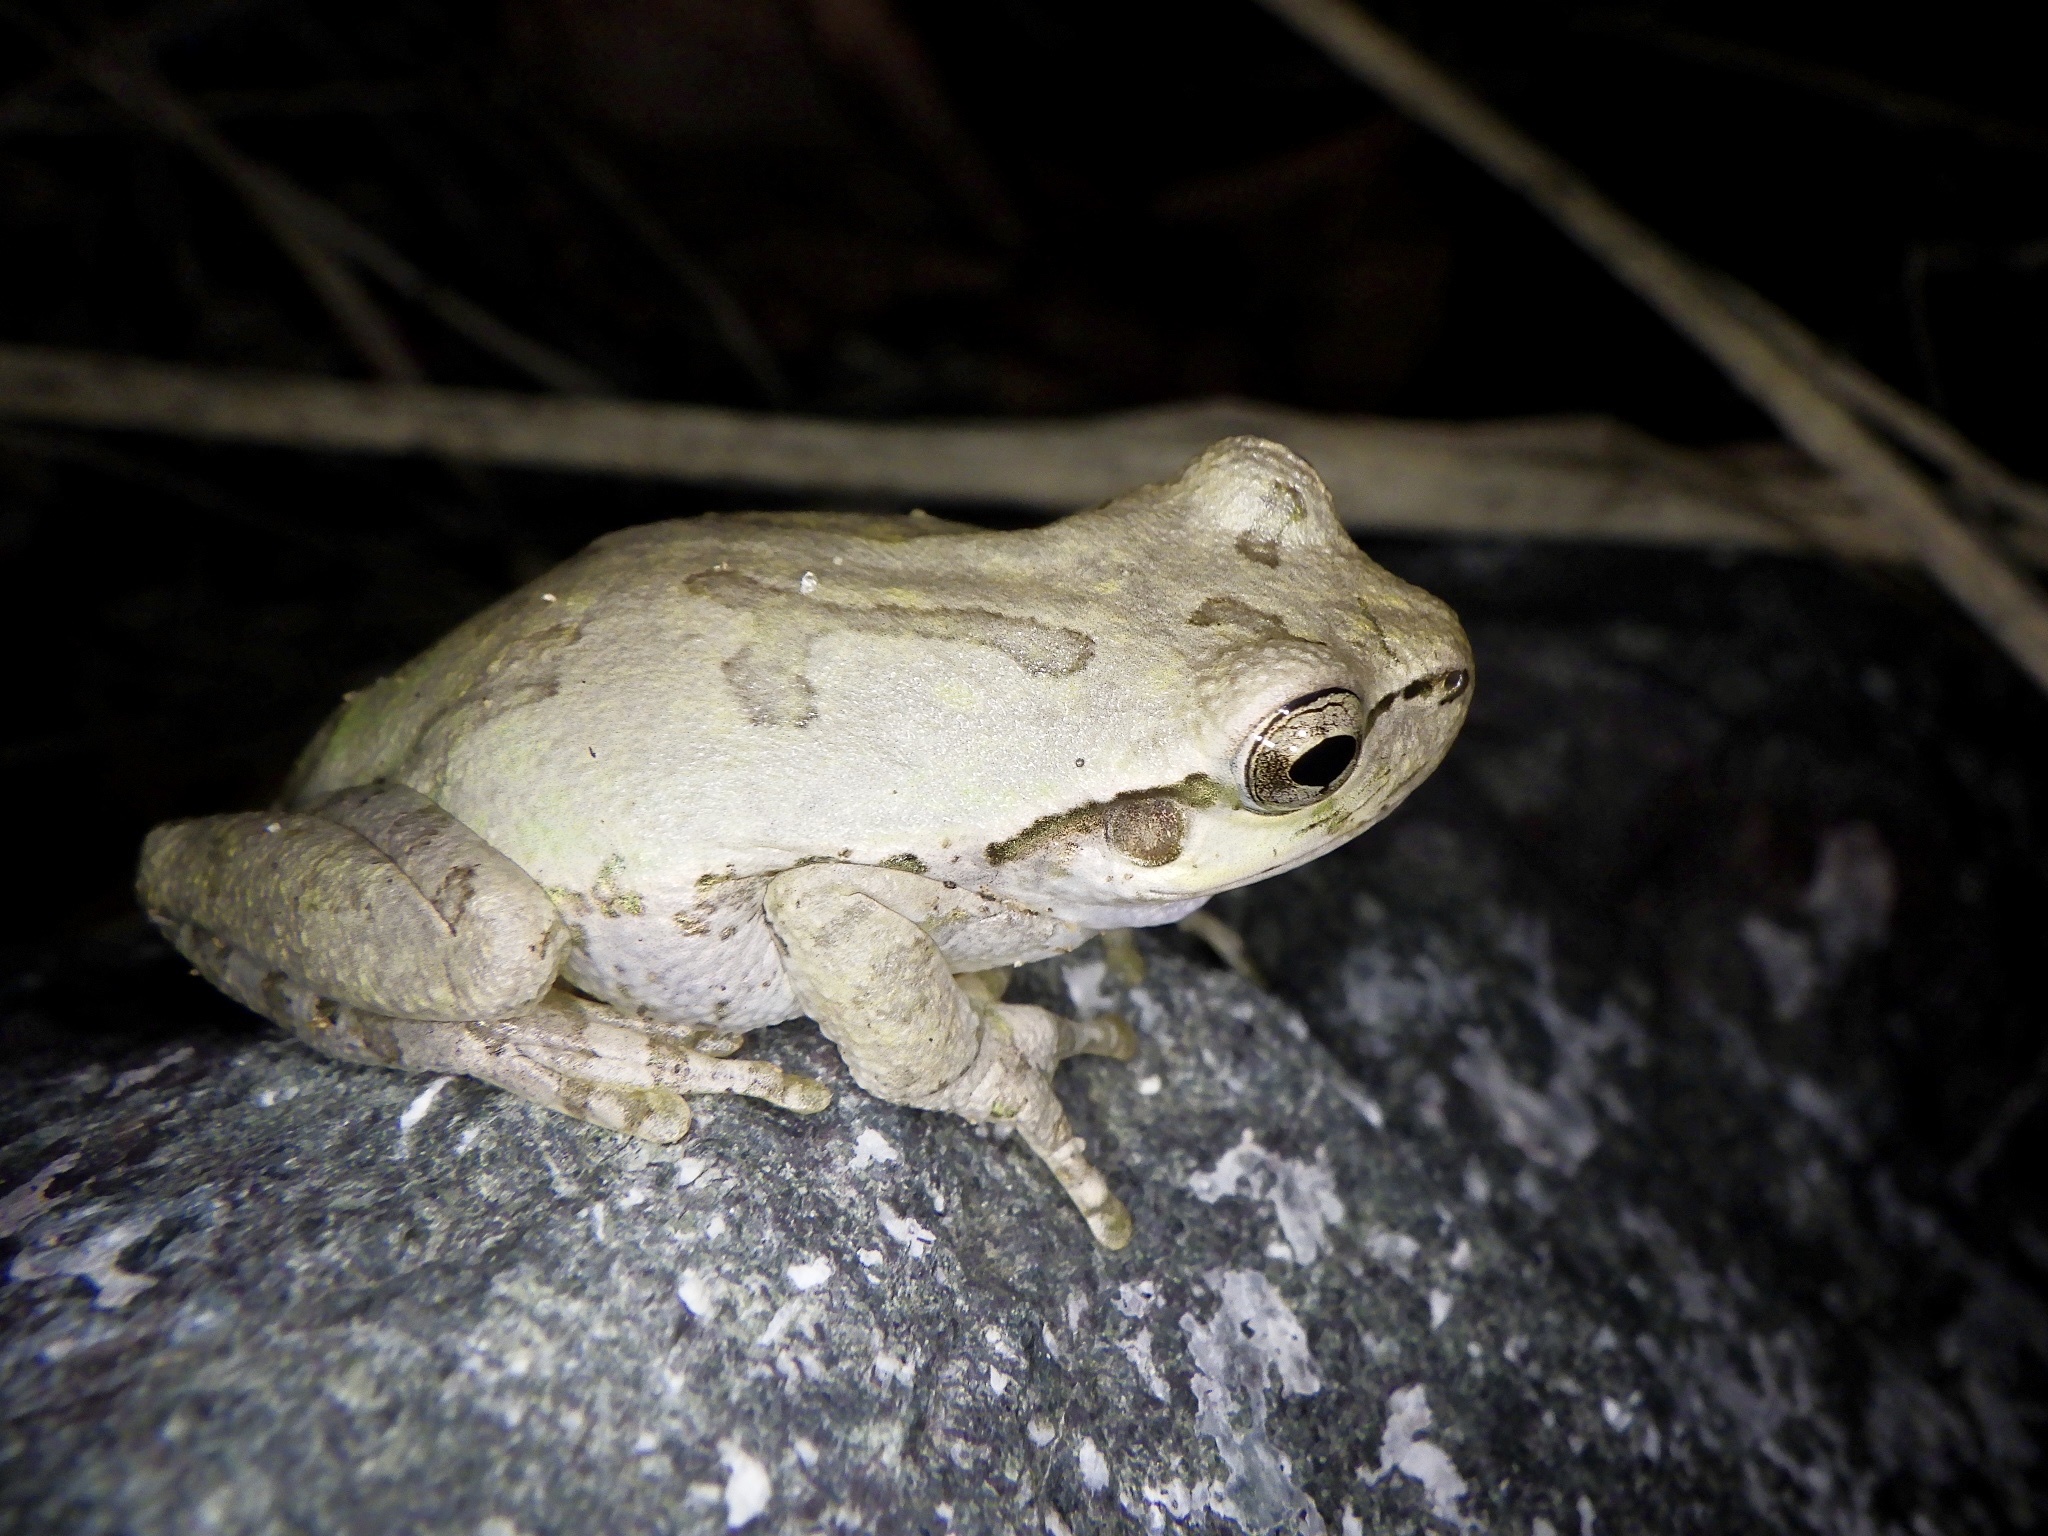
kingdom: Animalia
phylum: Chordata
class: Amphibia
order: Anura
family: Hylidae
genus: Dryophytes
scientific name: Dryophytes japonicus
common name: Japanese treefrog
